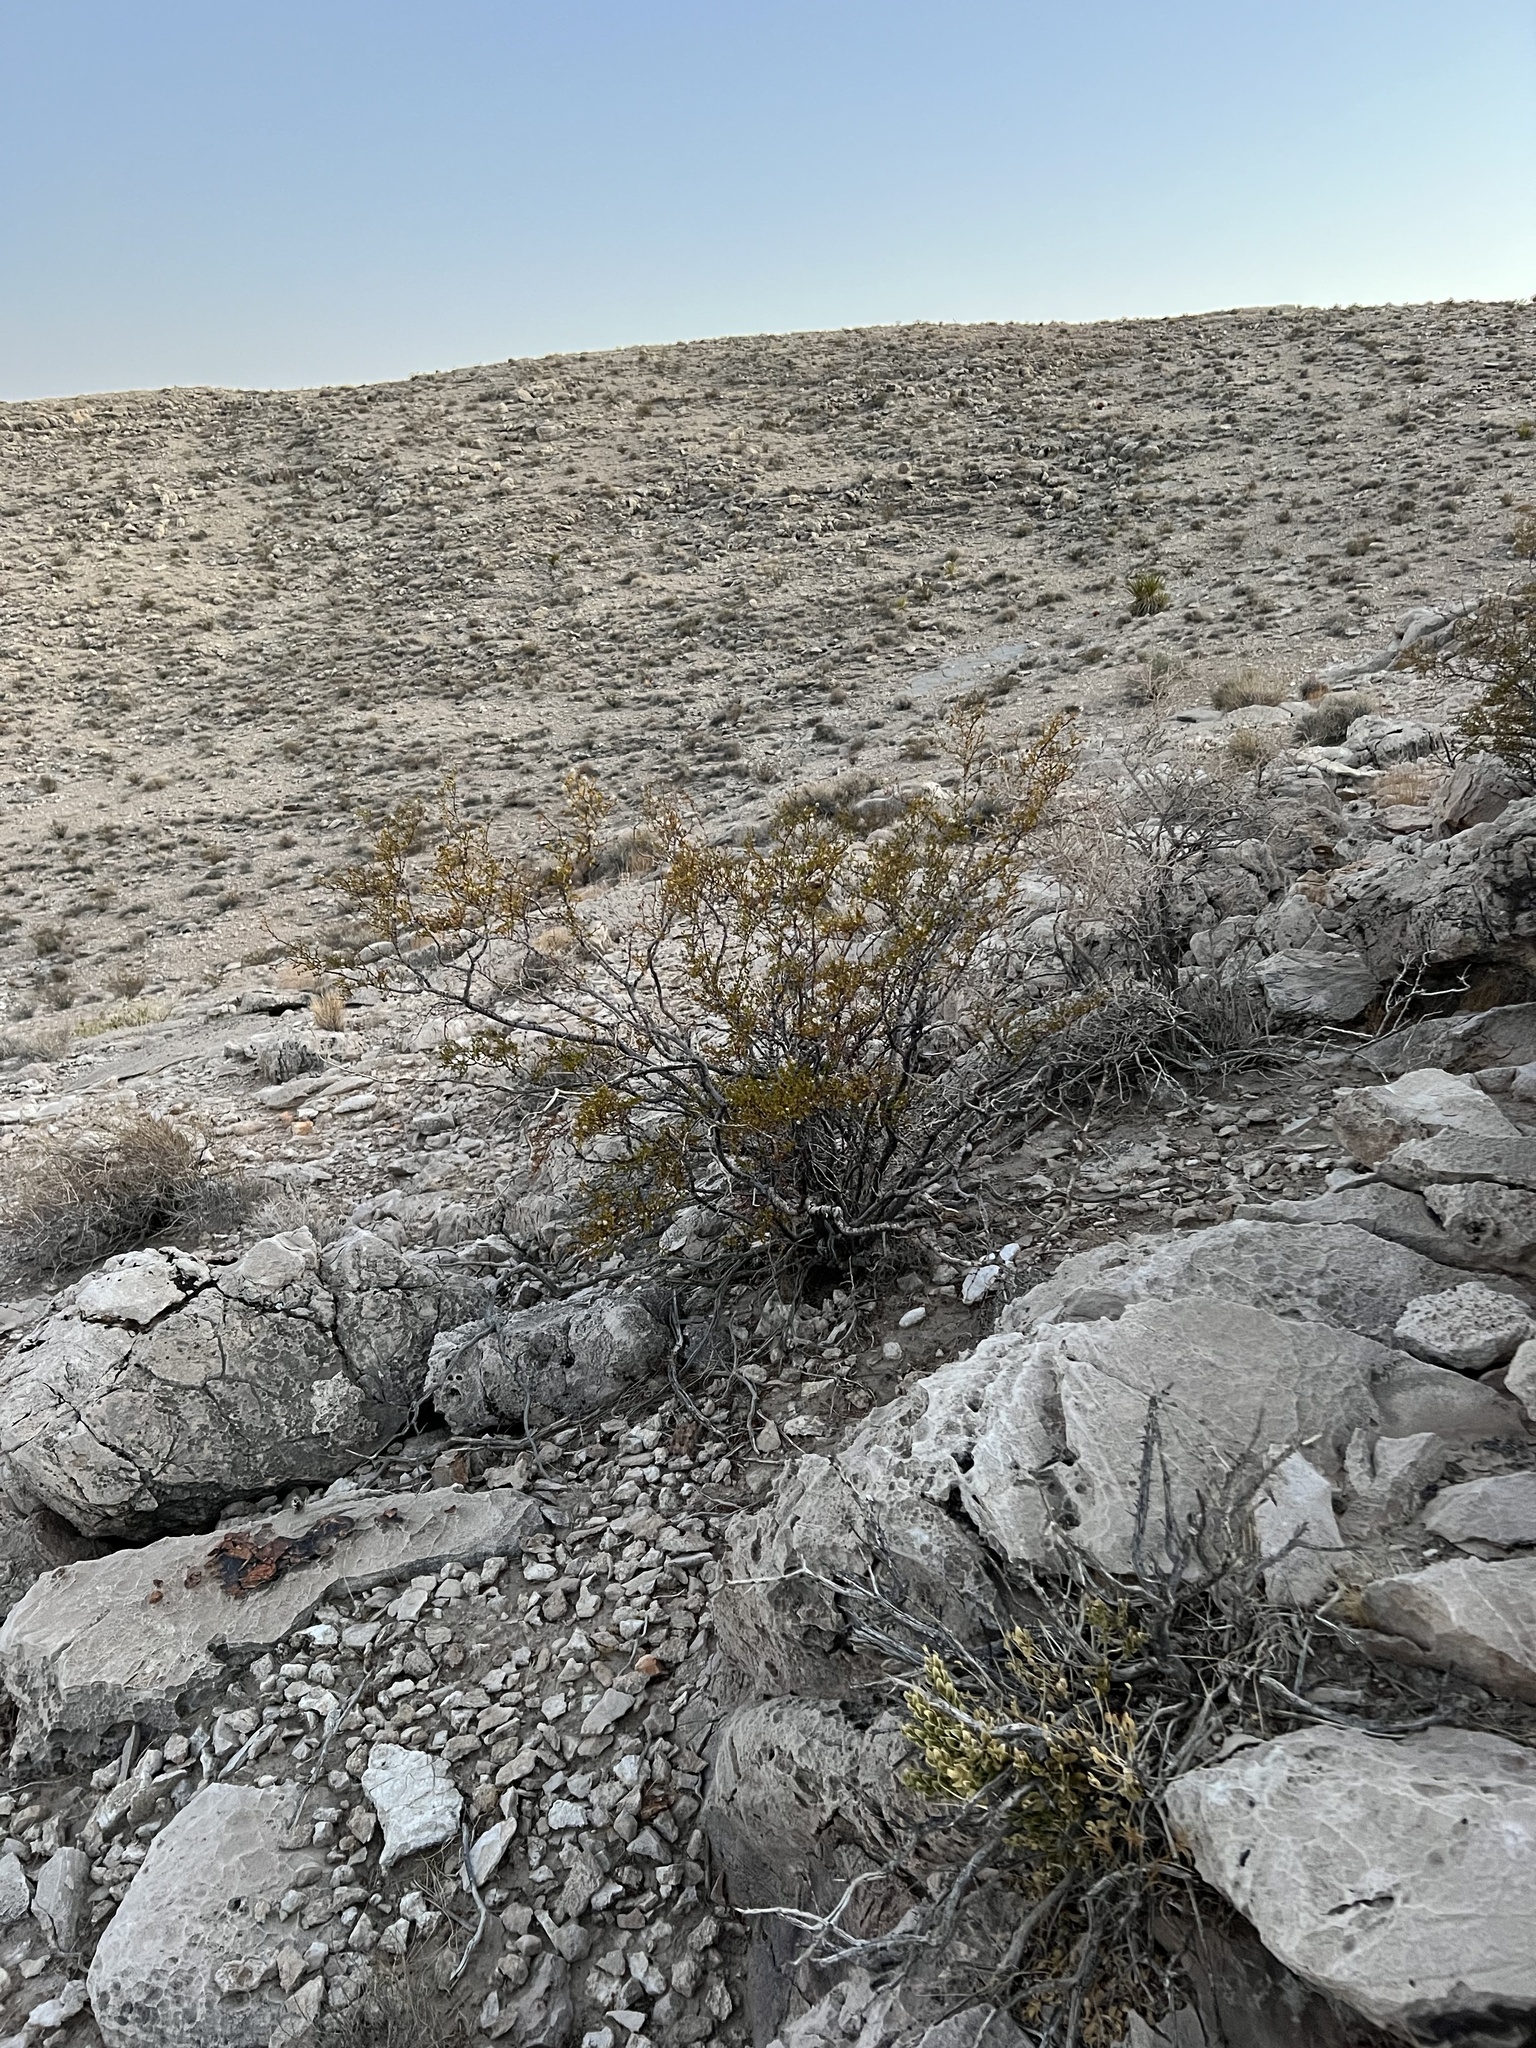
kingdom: Plantae
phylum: Tracheophyta
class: Magnoliopsida
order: Zygophyllales
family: Zygophyllaceae
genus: Larrea
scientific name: Larrea tridentata
